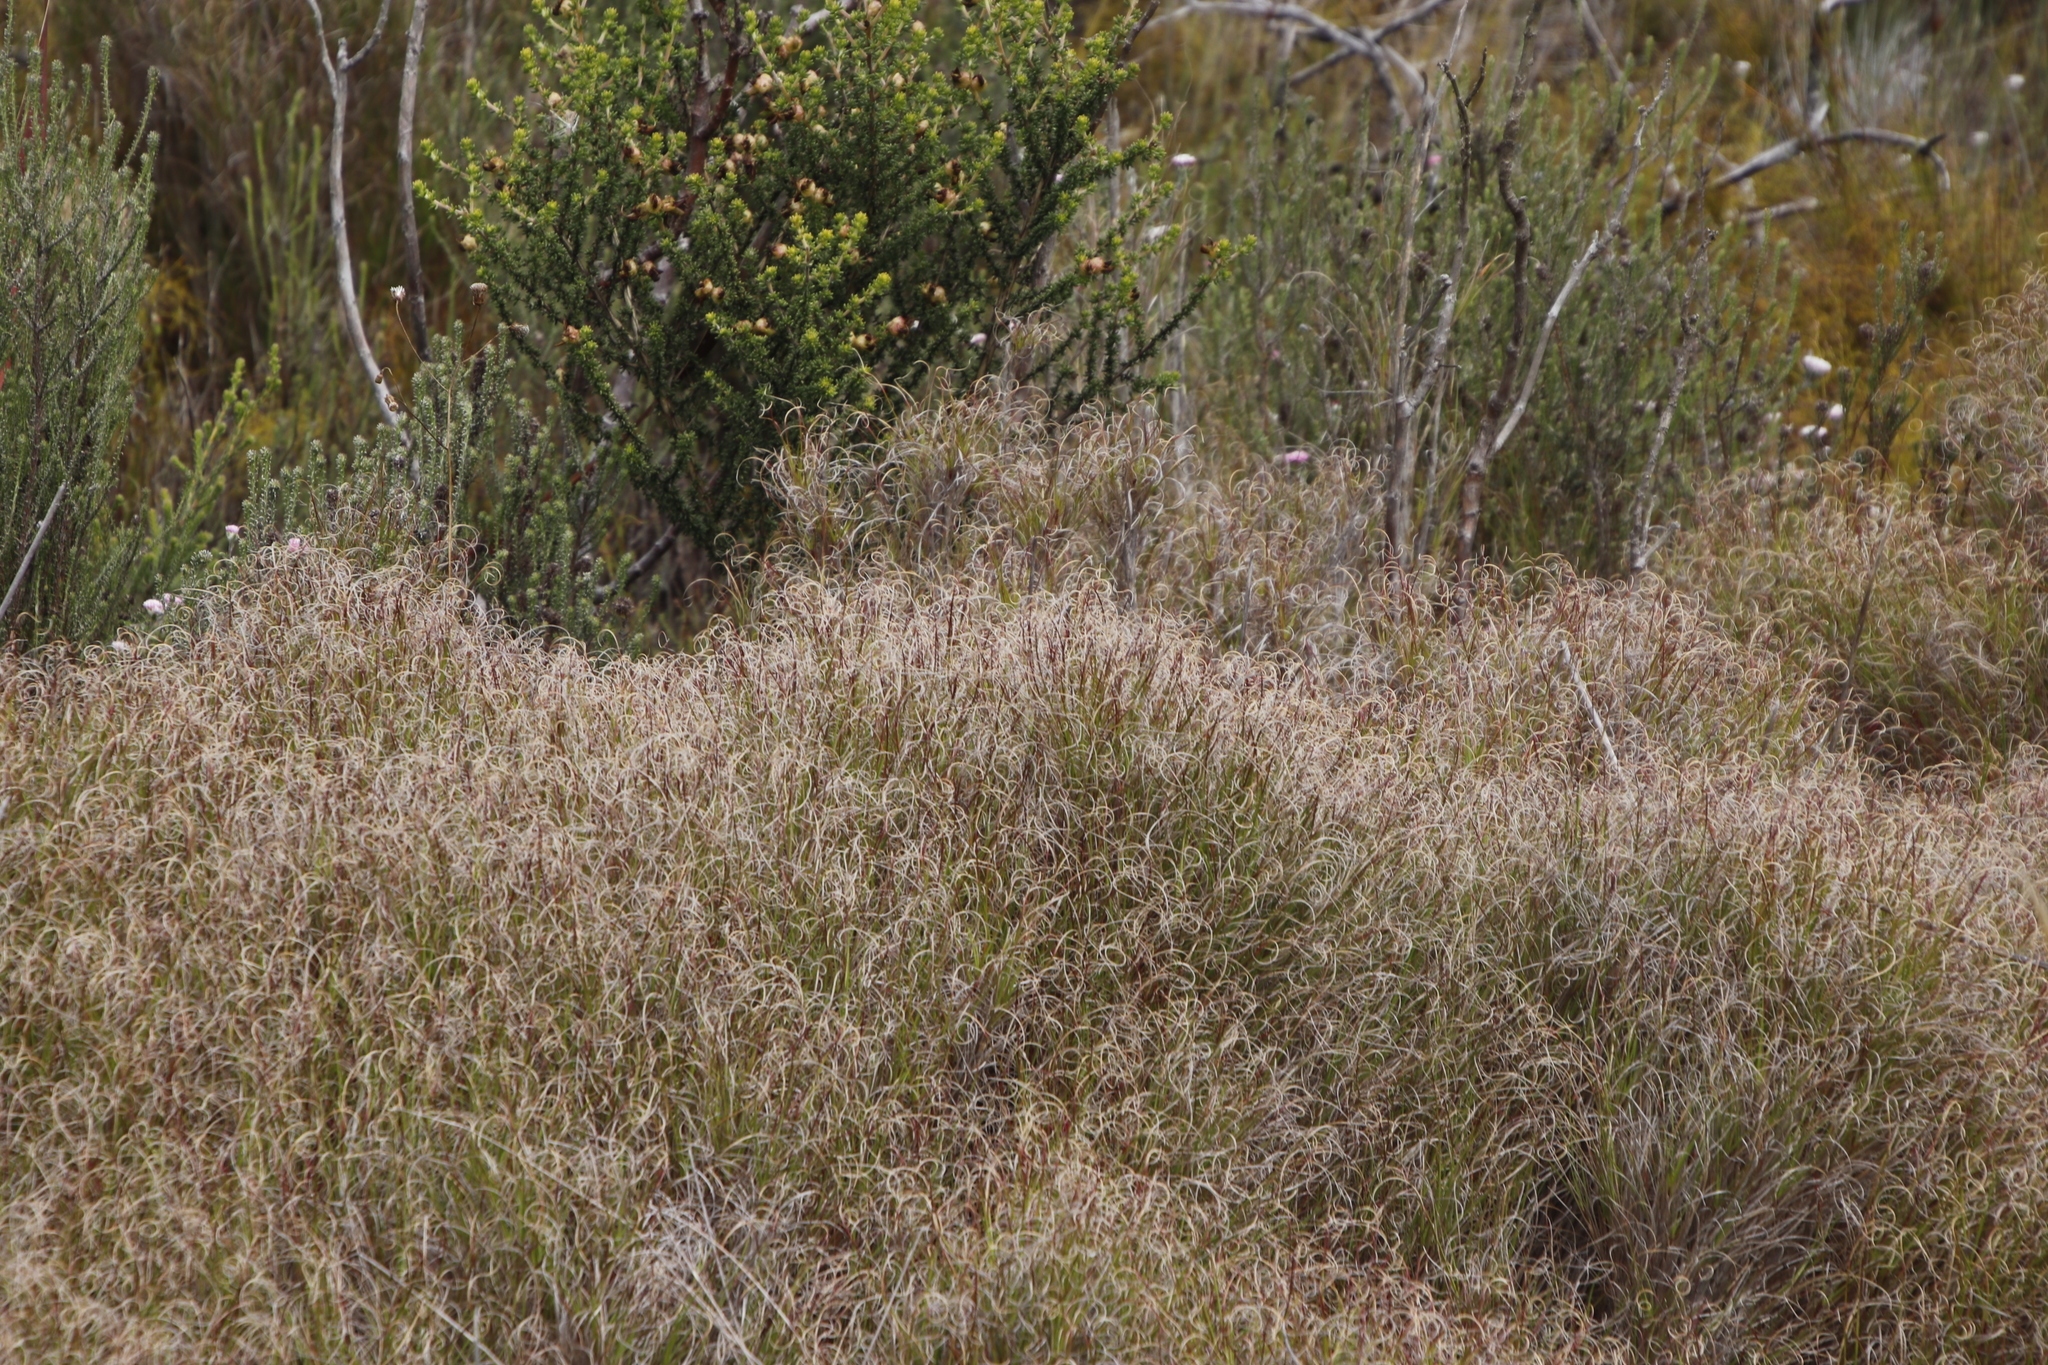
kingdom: Plantae
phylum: Tracheophyta
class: Liliopsida
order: Poales
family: Poaceae
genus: Pseudopentameris
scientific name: Pseudopentameris macrantha
